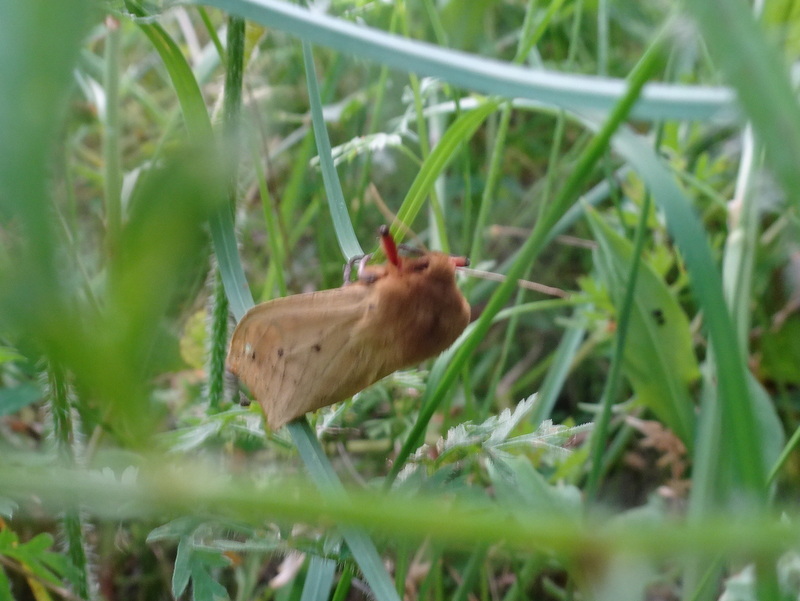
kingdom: Animalia
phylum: Arthropoda
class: Insecta
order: Lepidoptera
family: Erebidae
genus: Pyrrharctia
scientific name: Pyrrharctia isabella
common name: Isabella tiger moth
